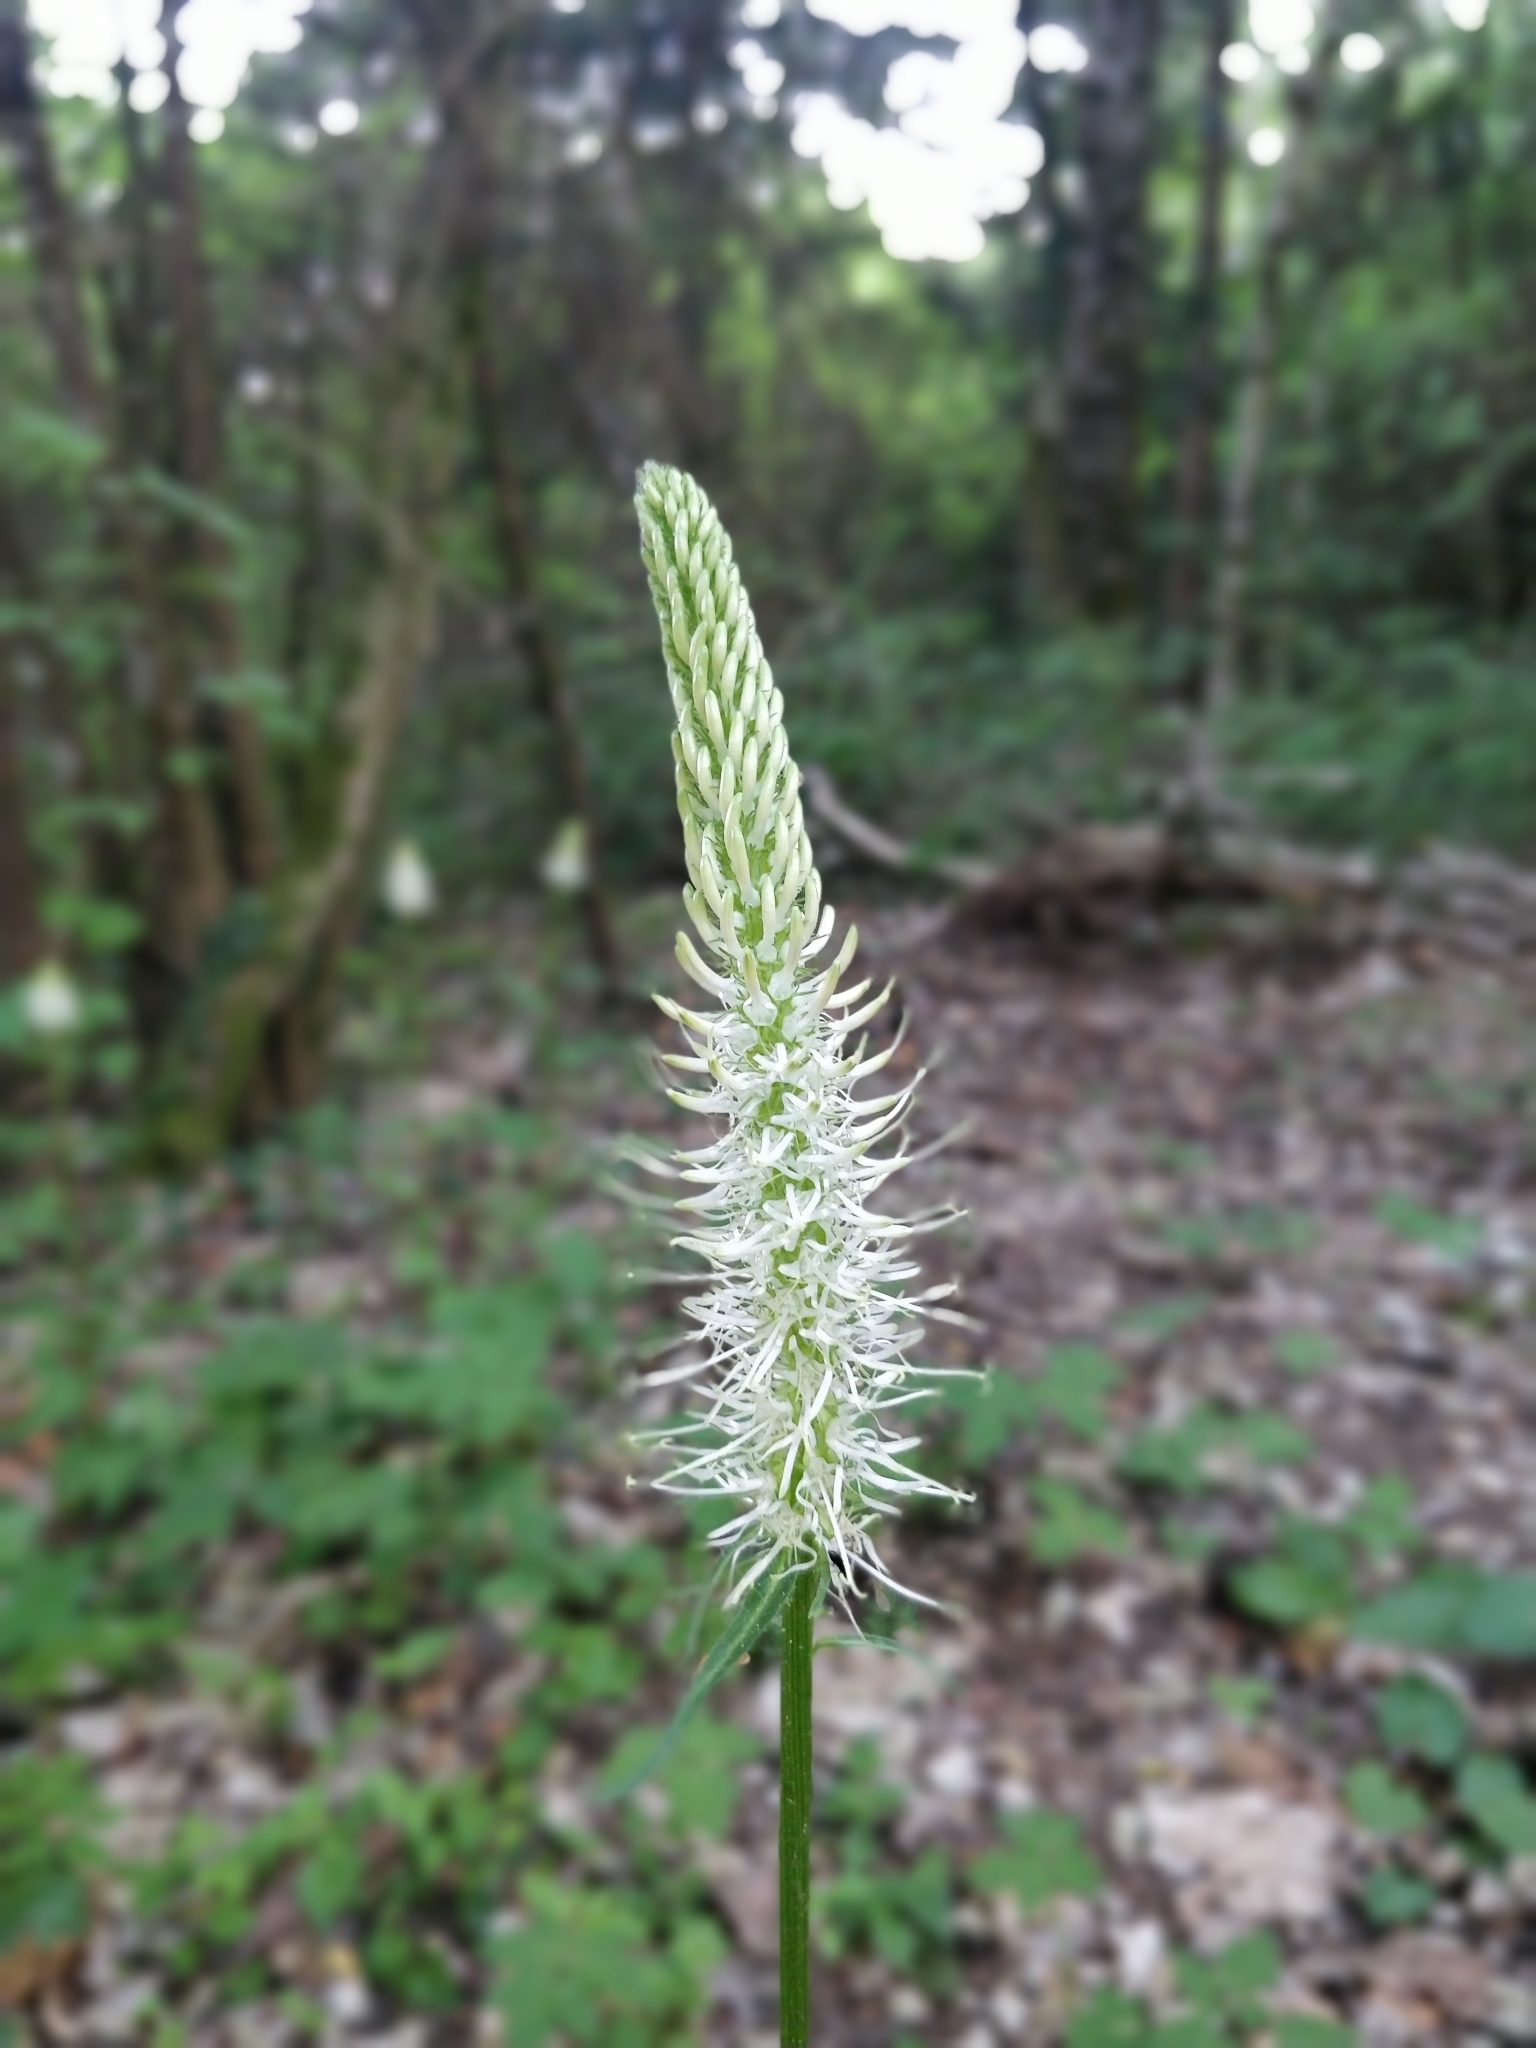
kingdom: Plantae
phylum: Tracheophyta
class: Magnoliopsida
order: Asterales
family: Campanulaceae
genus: Phyteuma
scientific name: Phyteuma spicatum
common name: Spiked rampion
